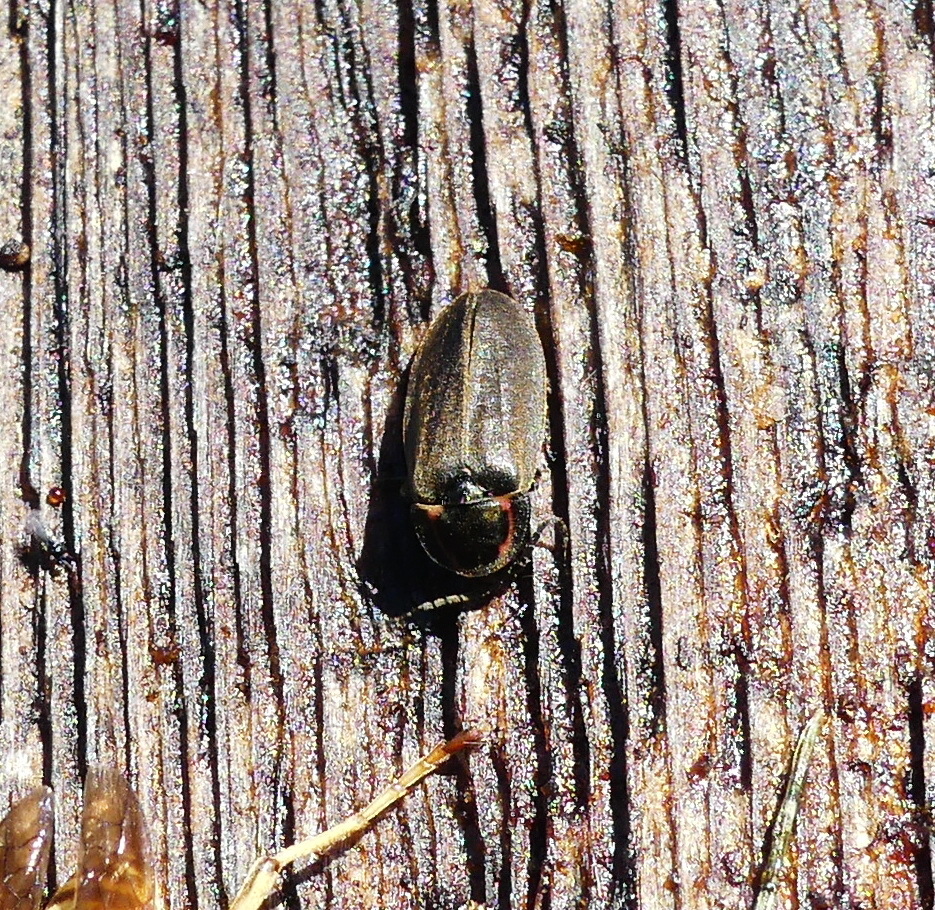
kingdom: Animalia
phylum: Arthropoda
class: Insecta
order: Coleoptera
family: Lampyridae
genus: Photinus
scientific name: Photinus corrusca
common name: Winter firefly
